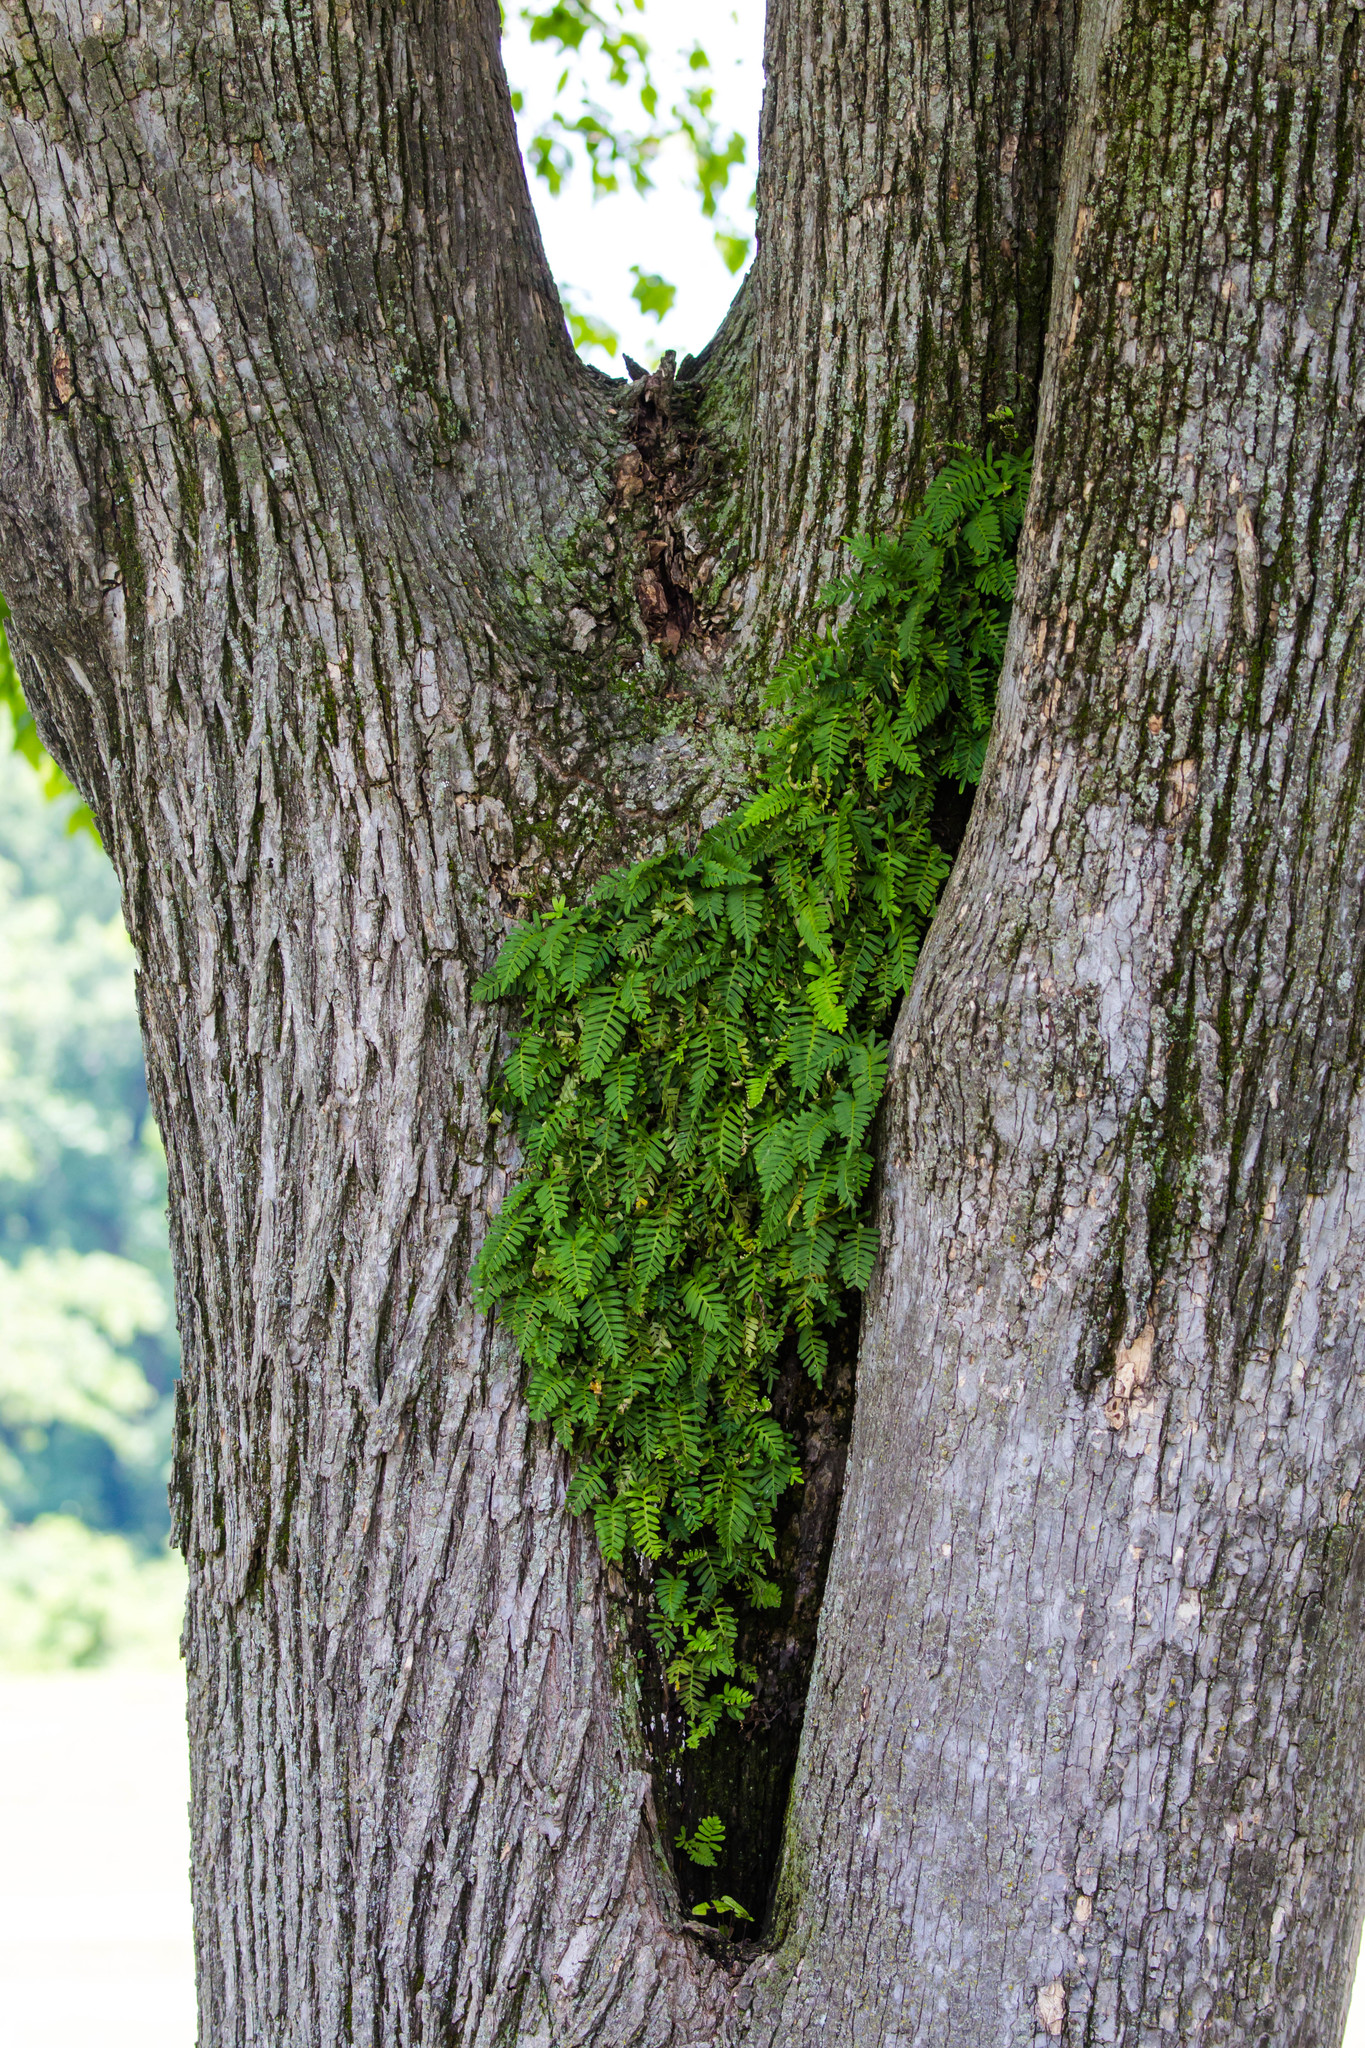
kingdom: Plantae
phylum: Tracheophyta
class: Polypodiopsida
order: Polypodiales
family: Polypodiaceae
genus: Pleopeltis
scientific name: Pleopeltis michauxiana
